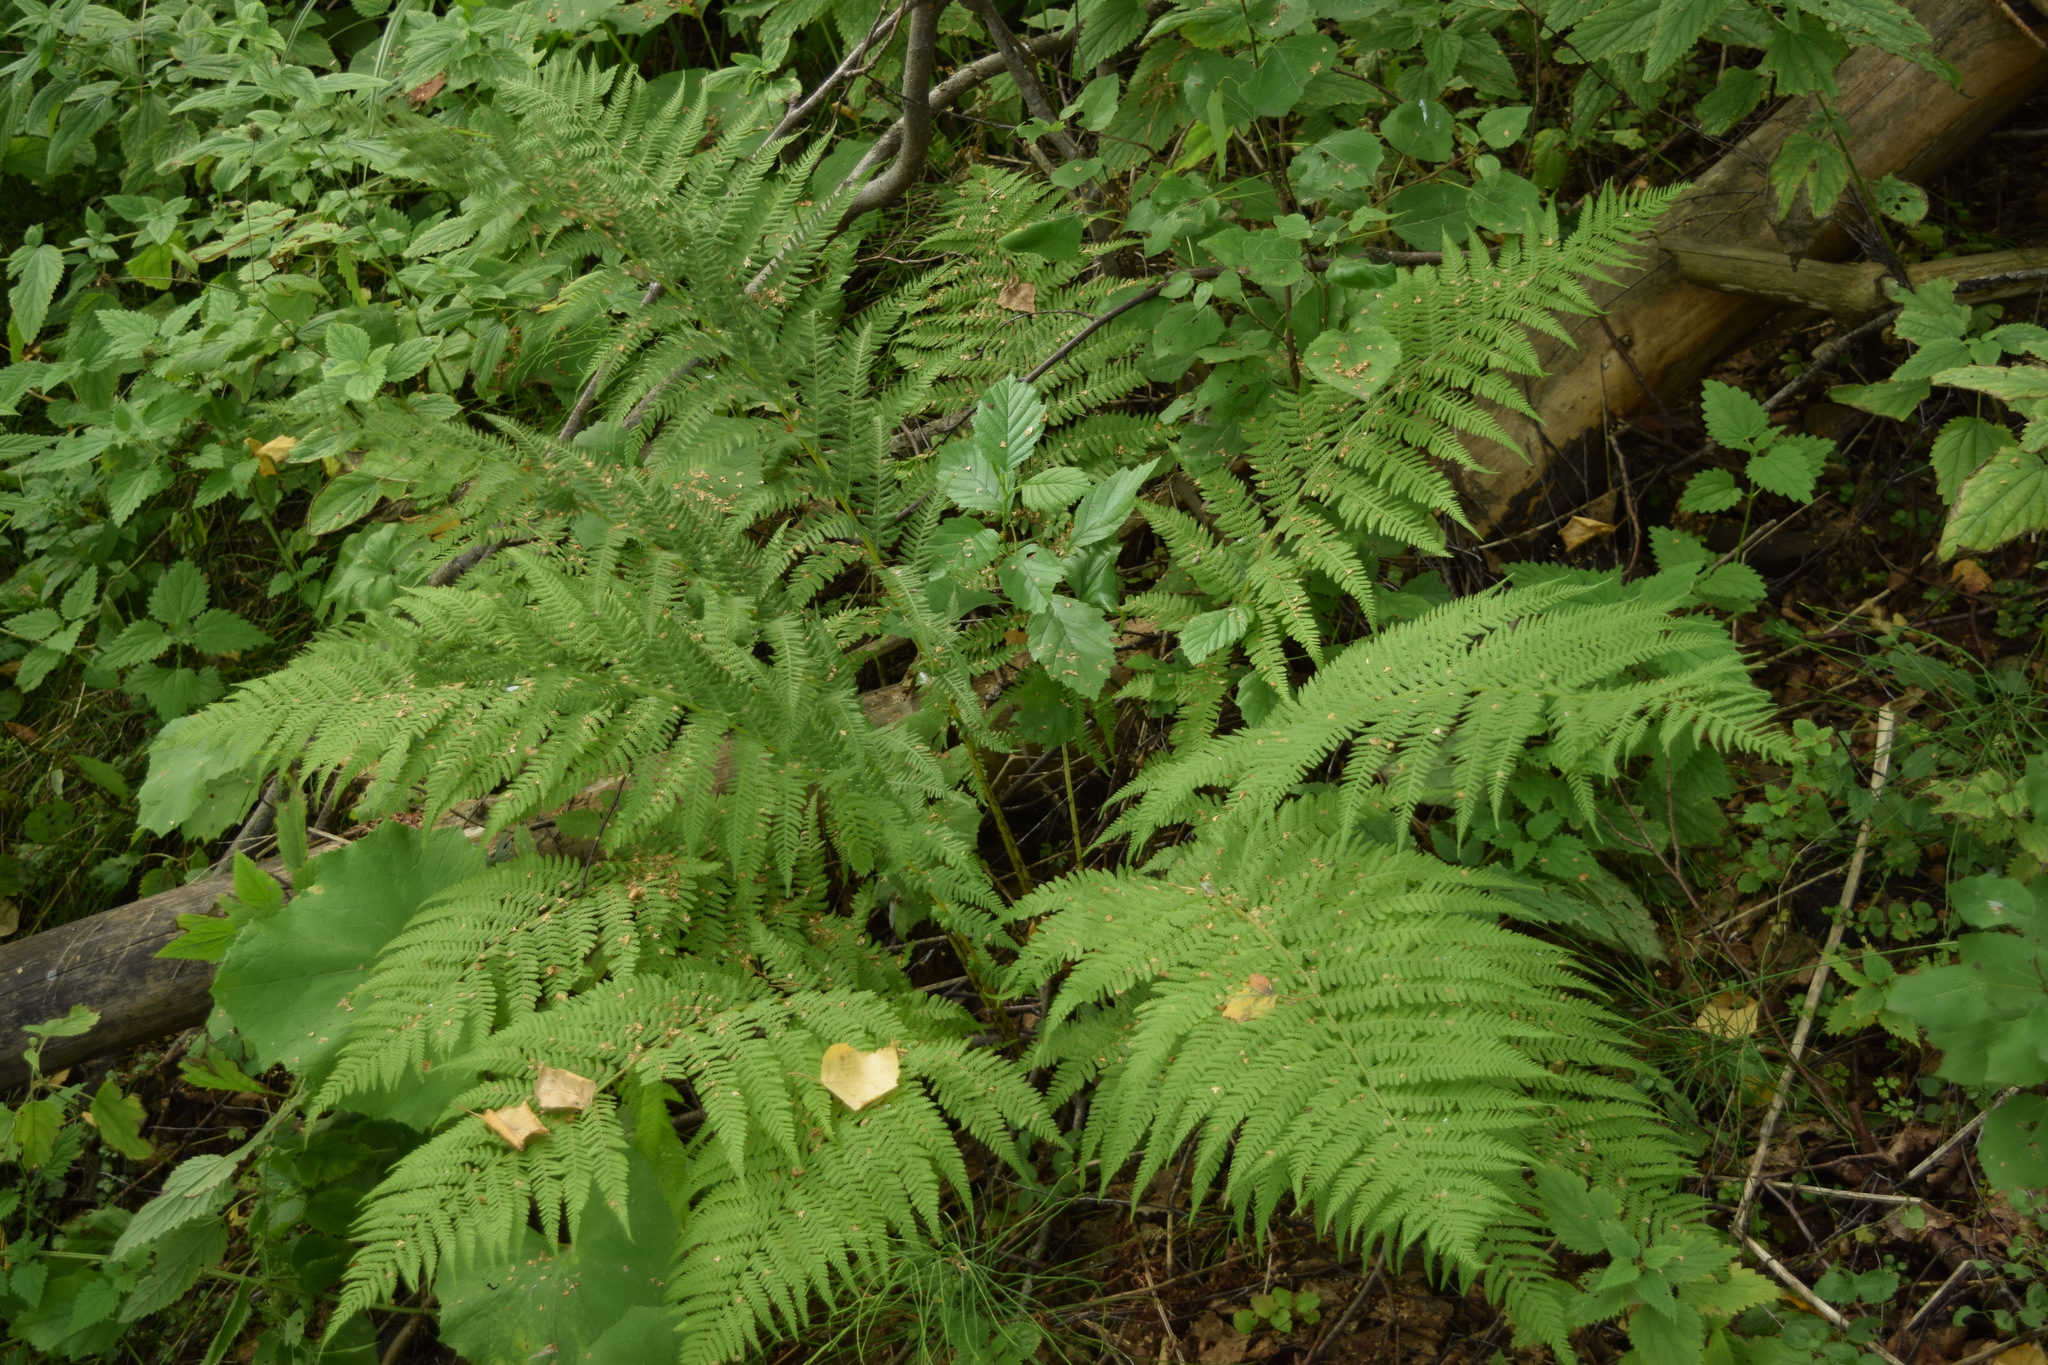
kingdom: Plantae
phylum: Tracheophyta
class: Polypodiopsida
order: Polypodiales
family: Athyriaceae
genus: Athyrium
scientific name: Athyrium filix-femina
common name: Lady fern
